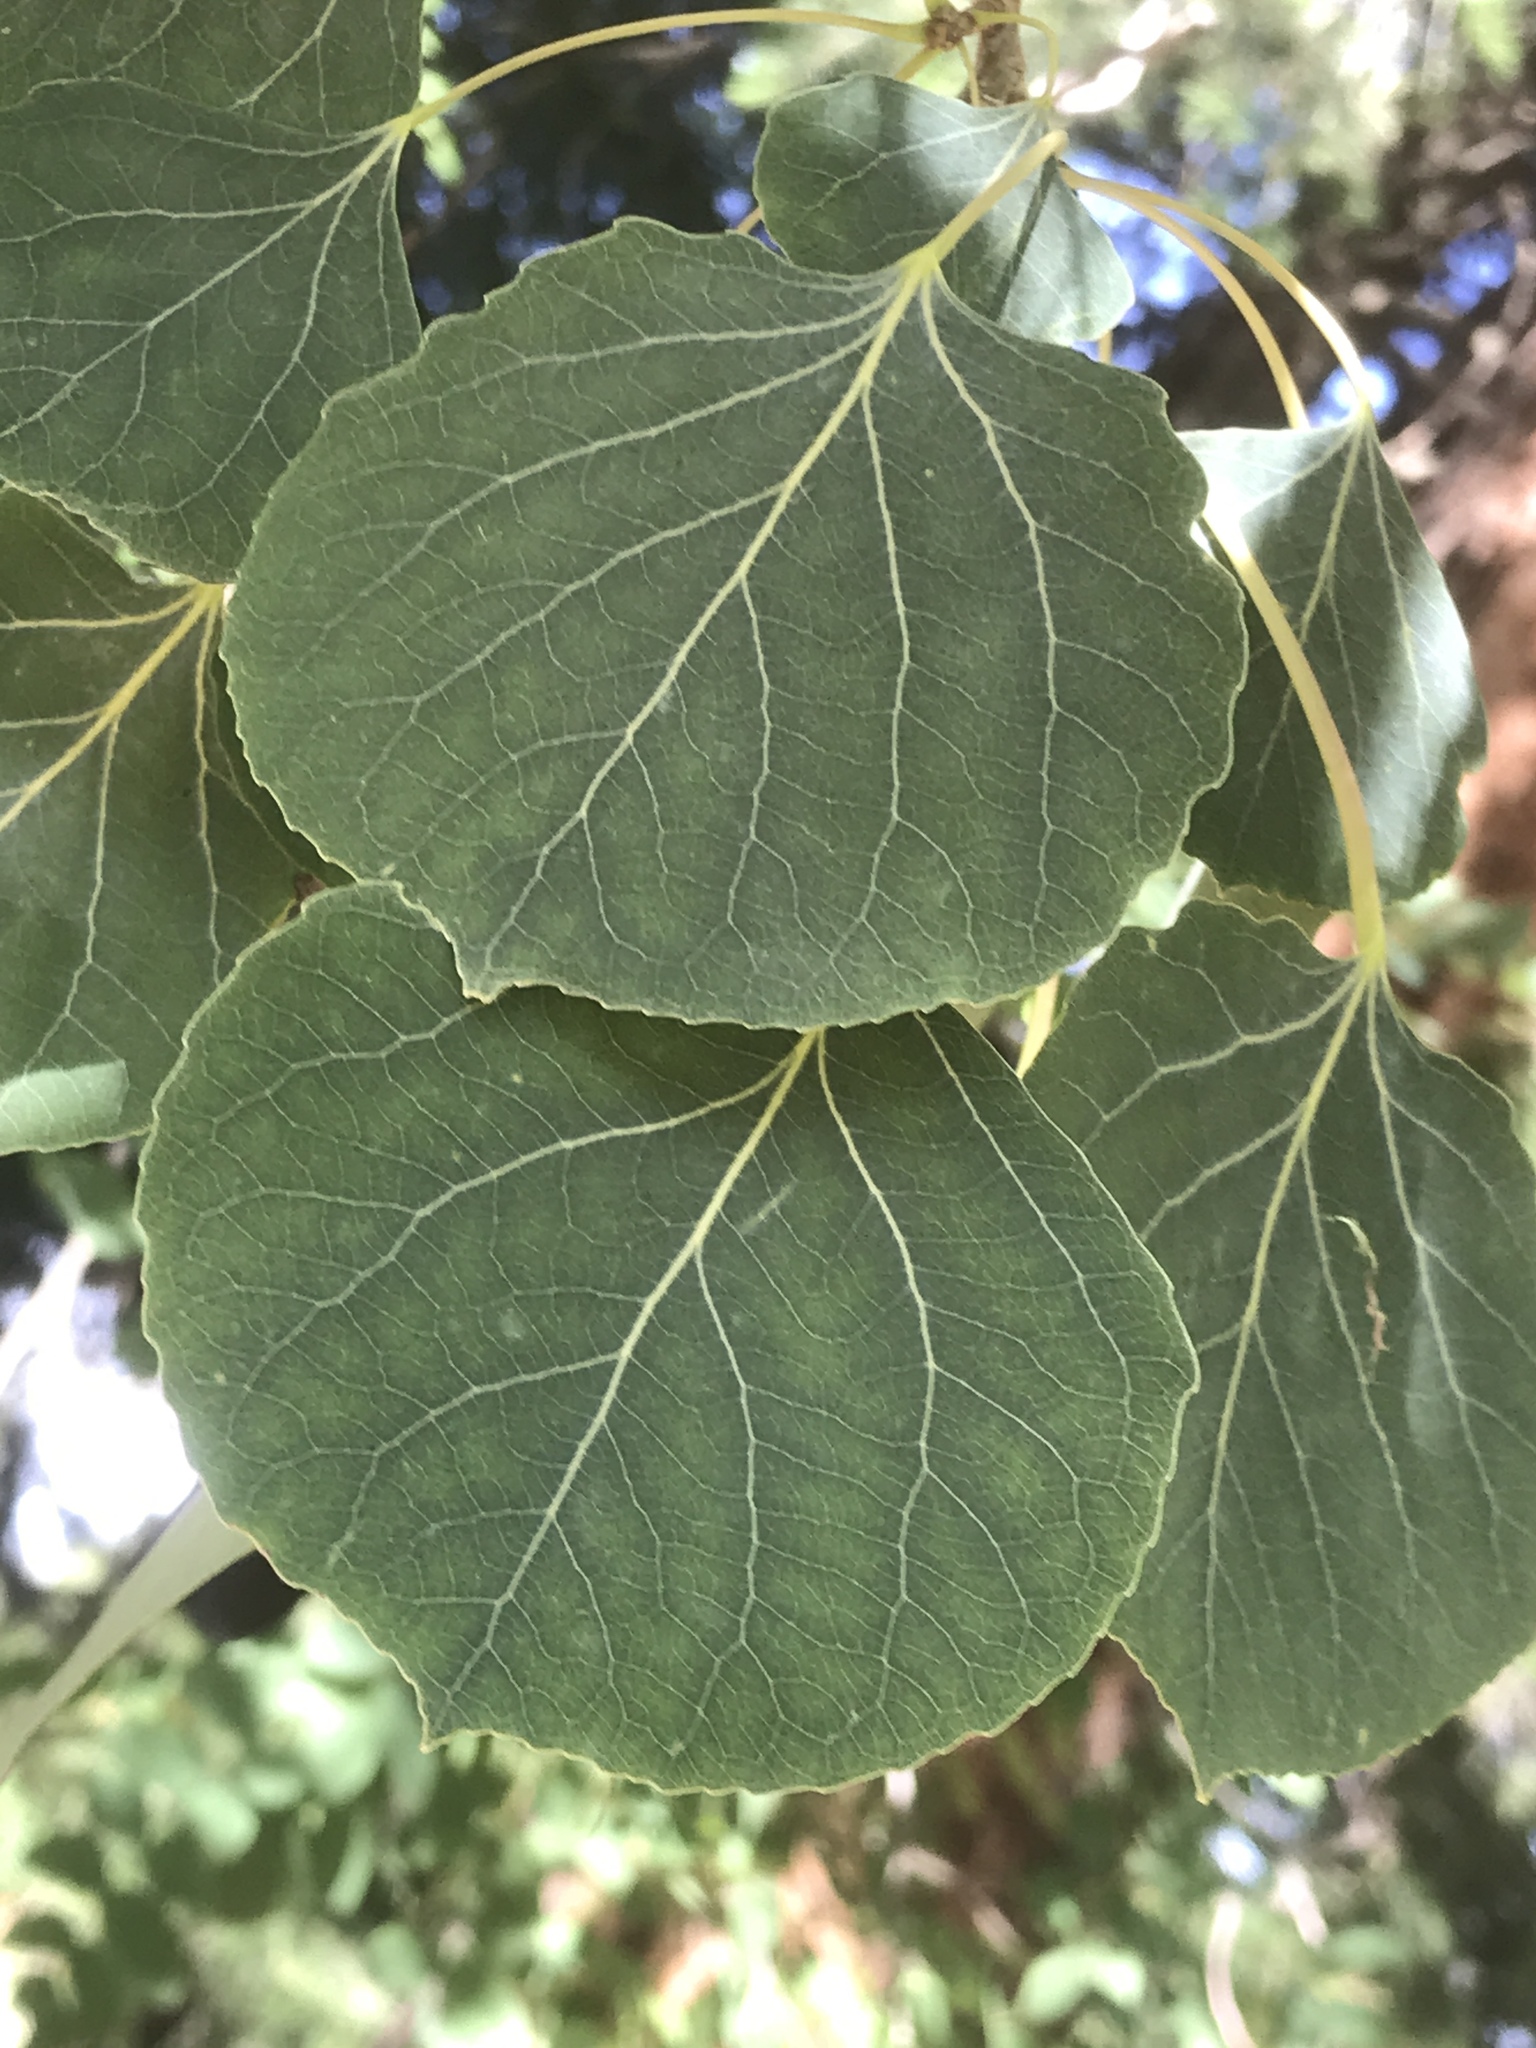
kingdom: Plantae
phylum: Tracheophyta
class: Magnoliopsida
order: Malpighiales
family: Salicaceae
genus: Populus
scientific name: Populus tremuloides
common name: Quaking aspen
